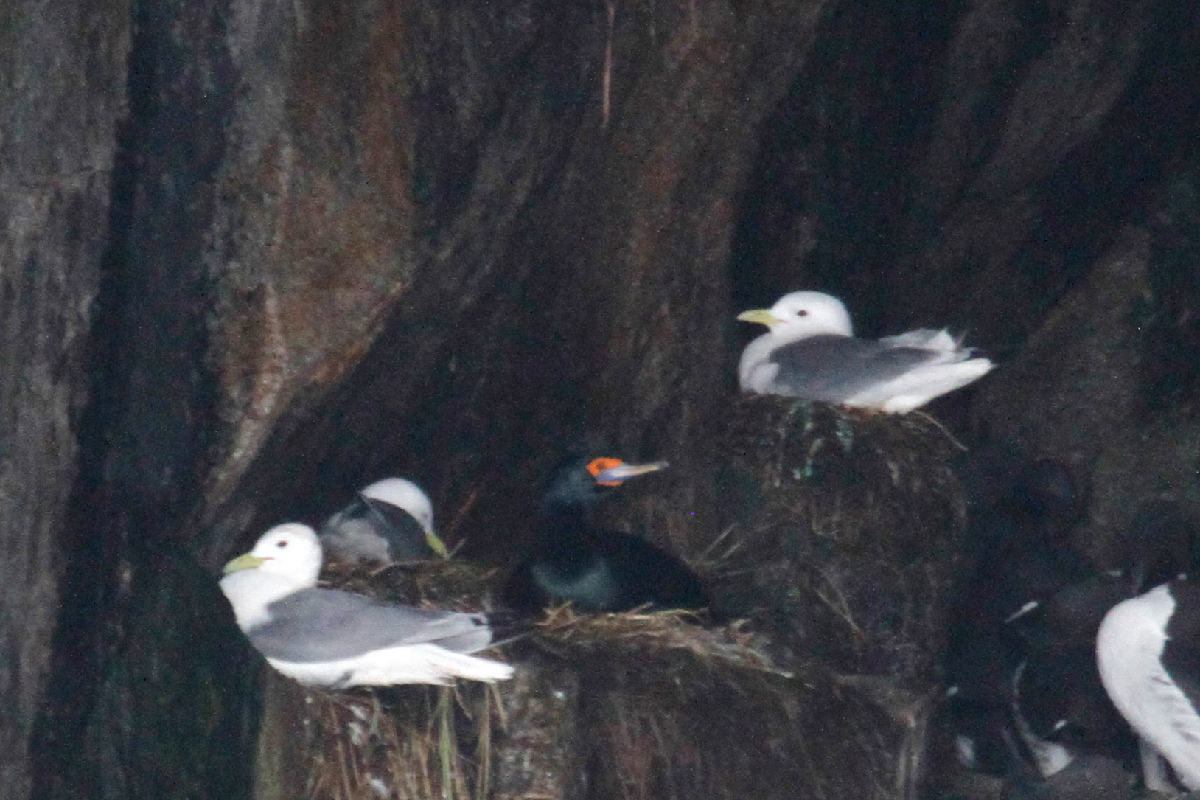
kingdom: Animalia
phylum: Chordata
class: Aves
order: Suliformes
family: Phalacrocoracidae
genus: Phalacrocorax
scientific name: Phalacrocorax urile
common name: Red-faced cormorant
